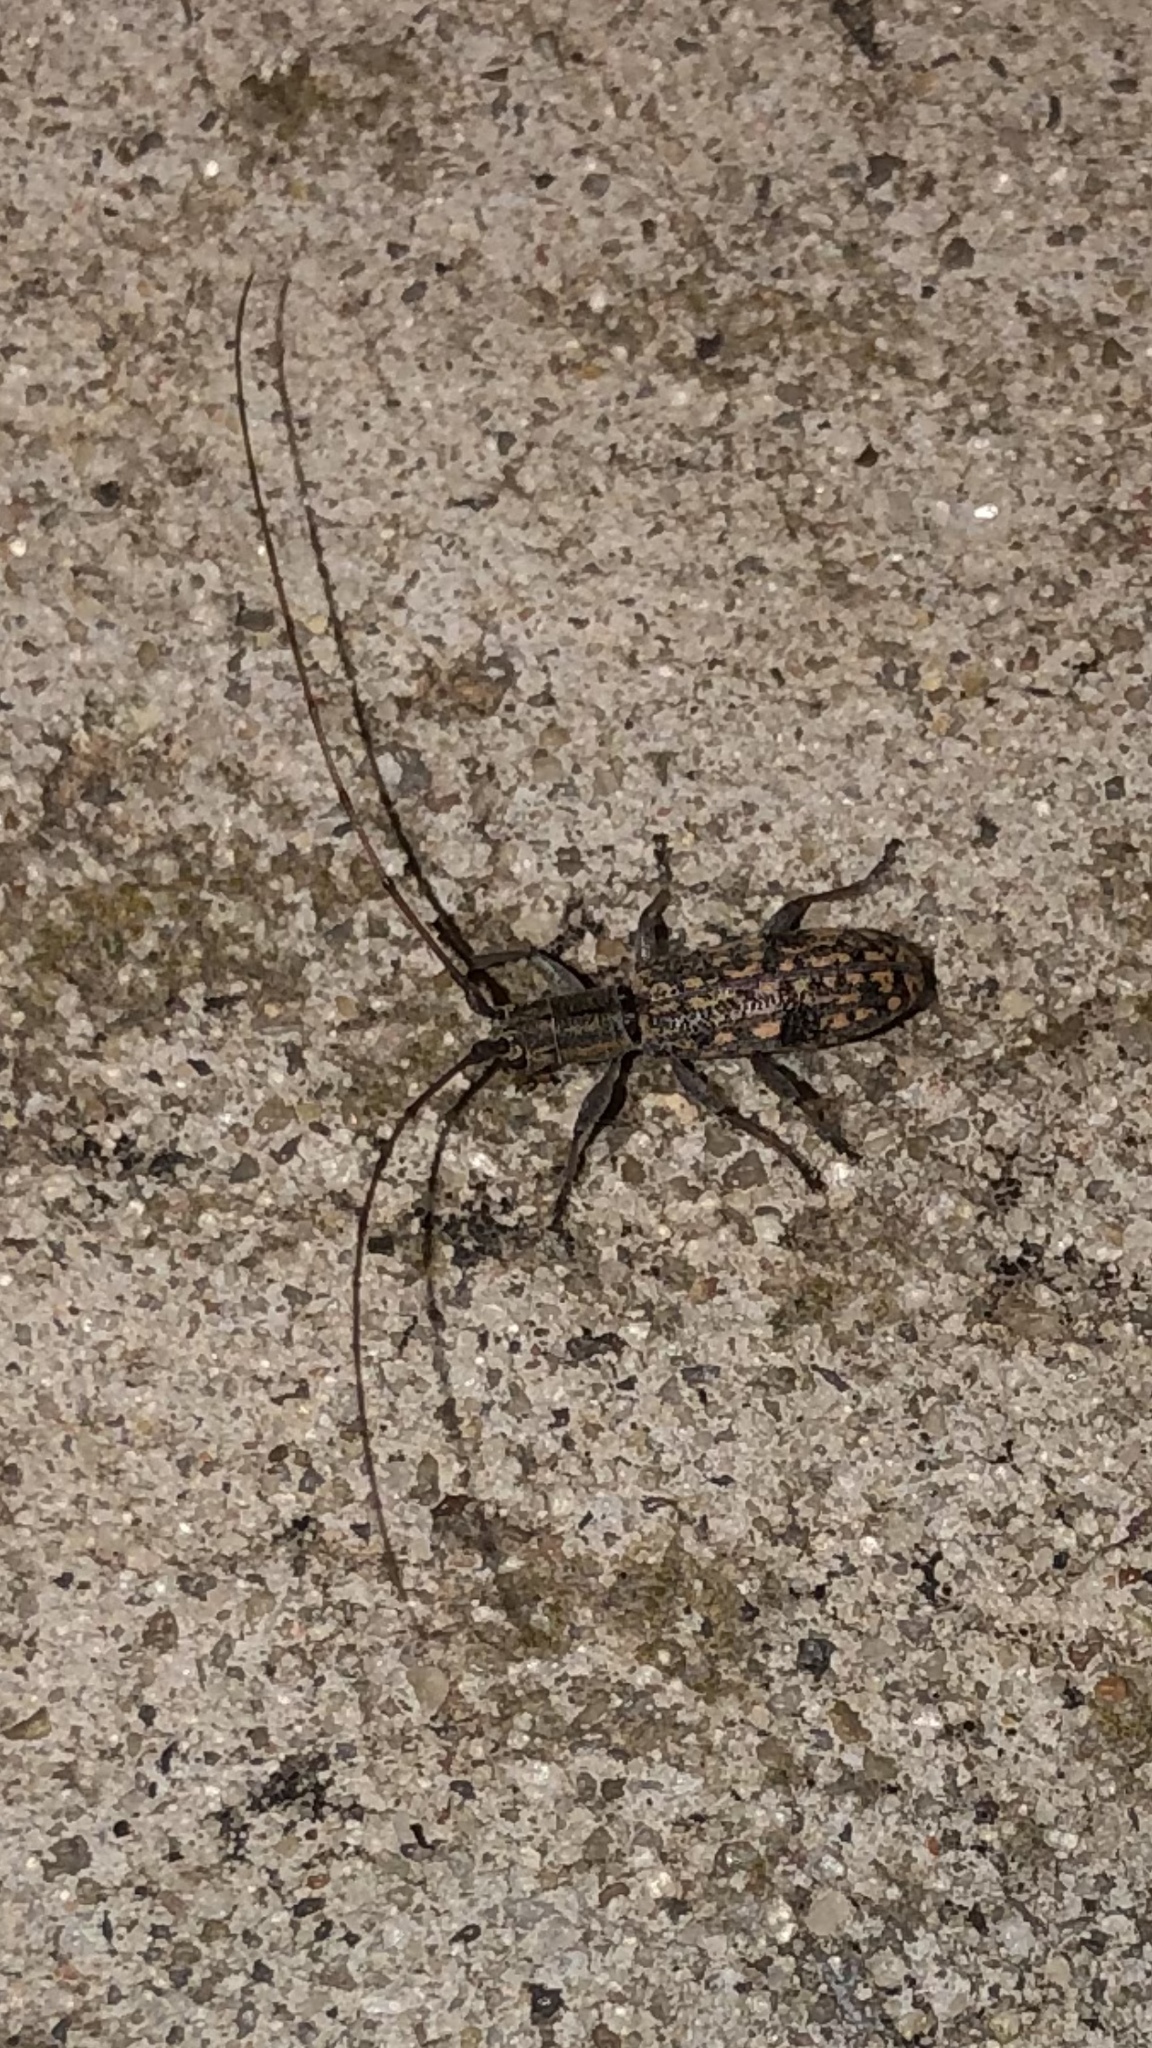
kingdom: Animalia
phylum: Arthropoda
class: Insecta
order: Coleoptera
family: Cerambycidae
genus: Dorcaschema
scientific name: Dorcaschema alternatum
